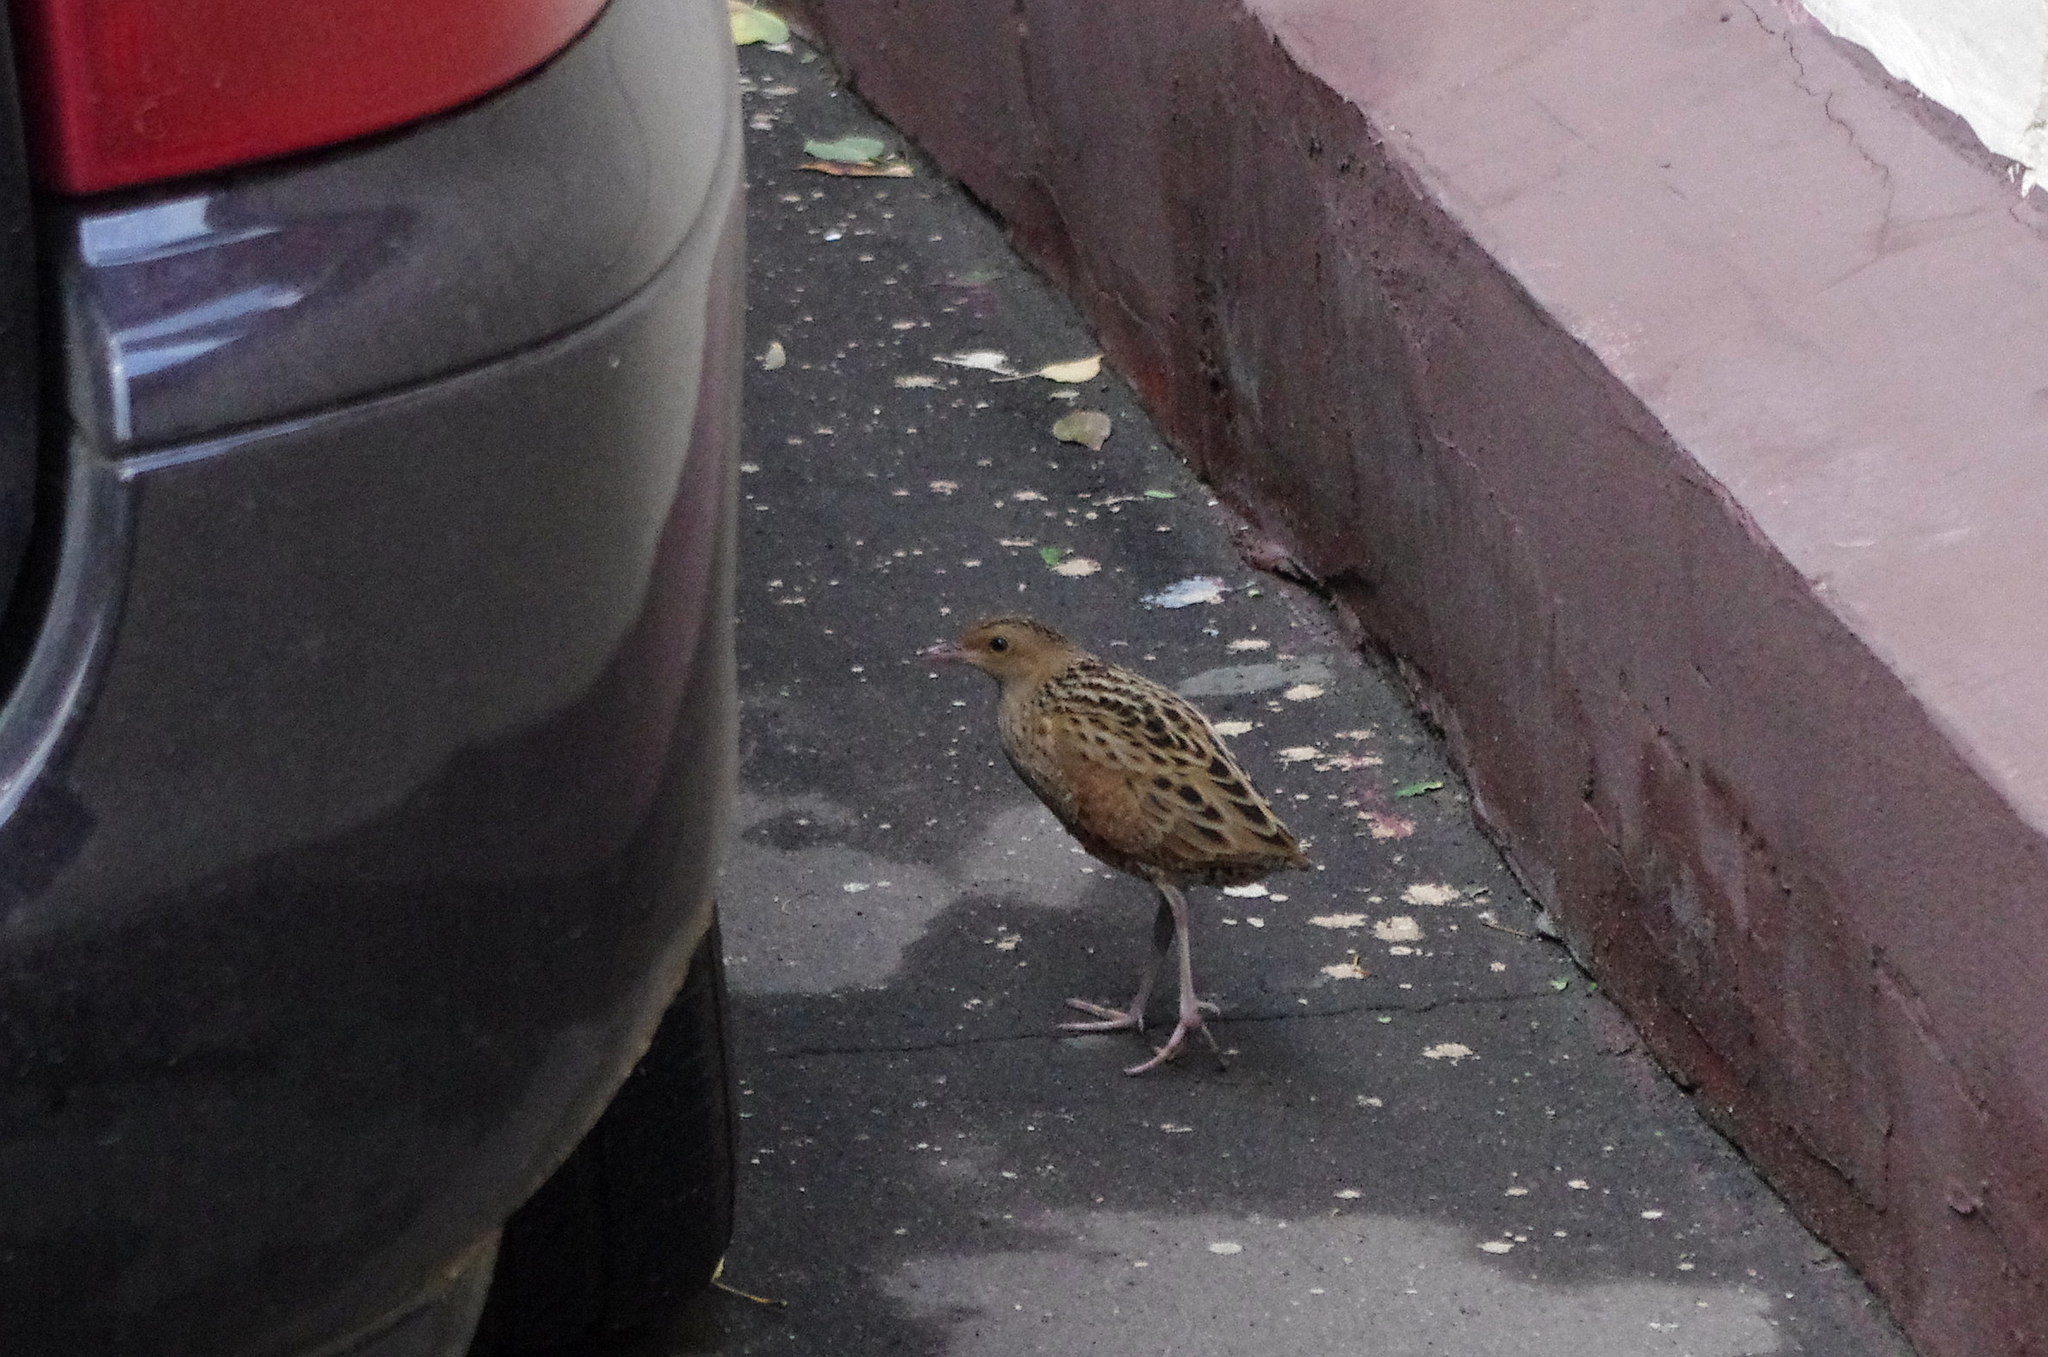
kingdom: Animalia
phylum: Chordata
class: Aves
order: Gruiformes
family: Rallidae
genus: Crex
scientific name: Crex crex
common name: Corn crake
